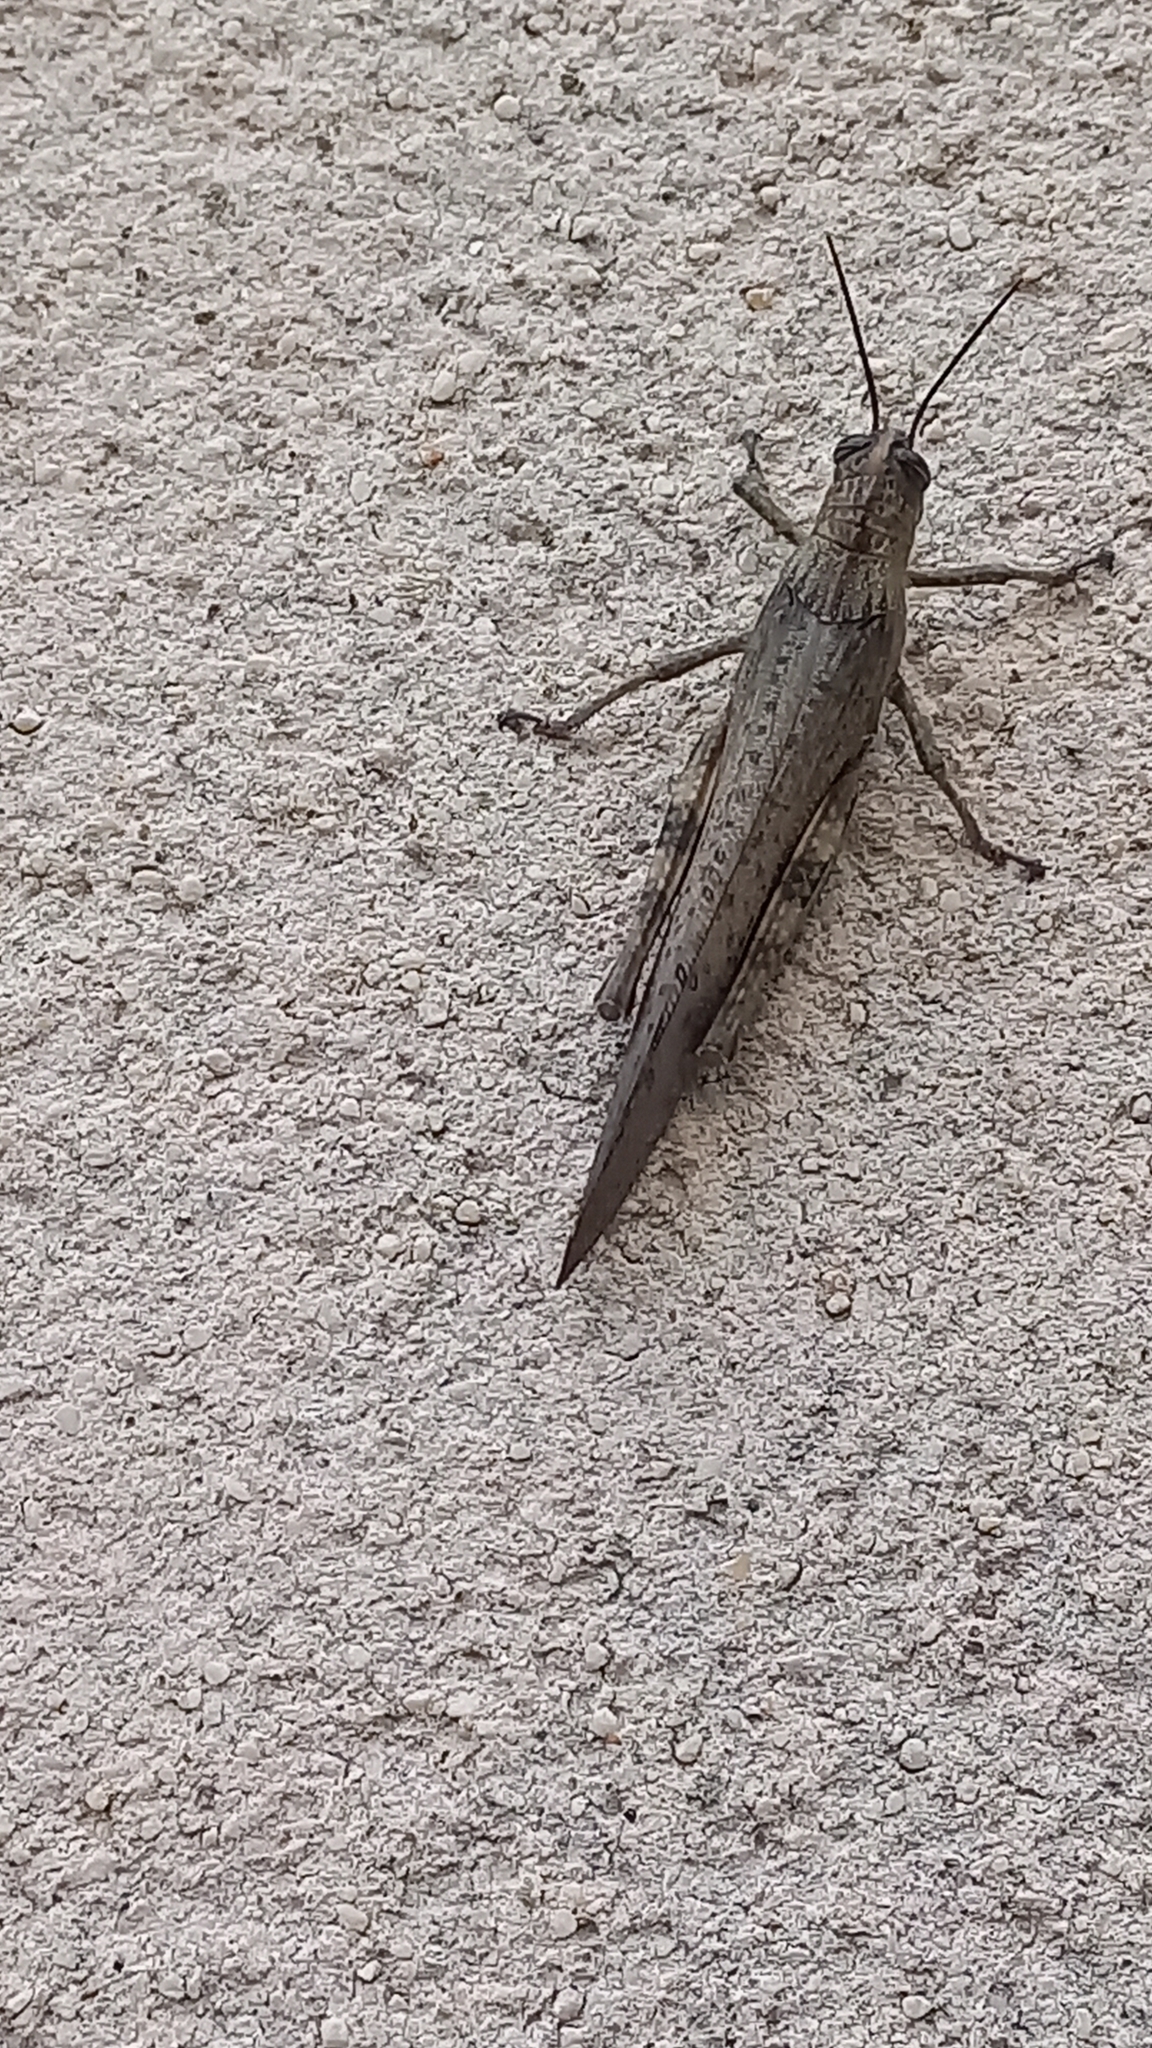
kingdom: Animalia
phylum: Arthropoda
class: Insecta
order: Orthoptera
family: Acrididae
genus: Anacridium
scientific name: Anacridium aegyptium
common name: Egyptian grasshopper
